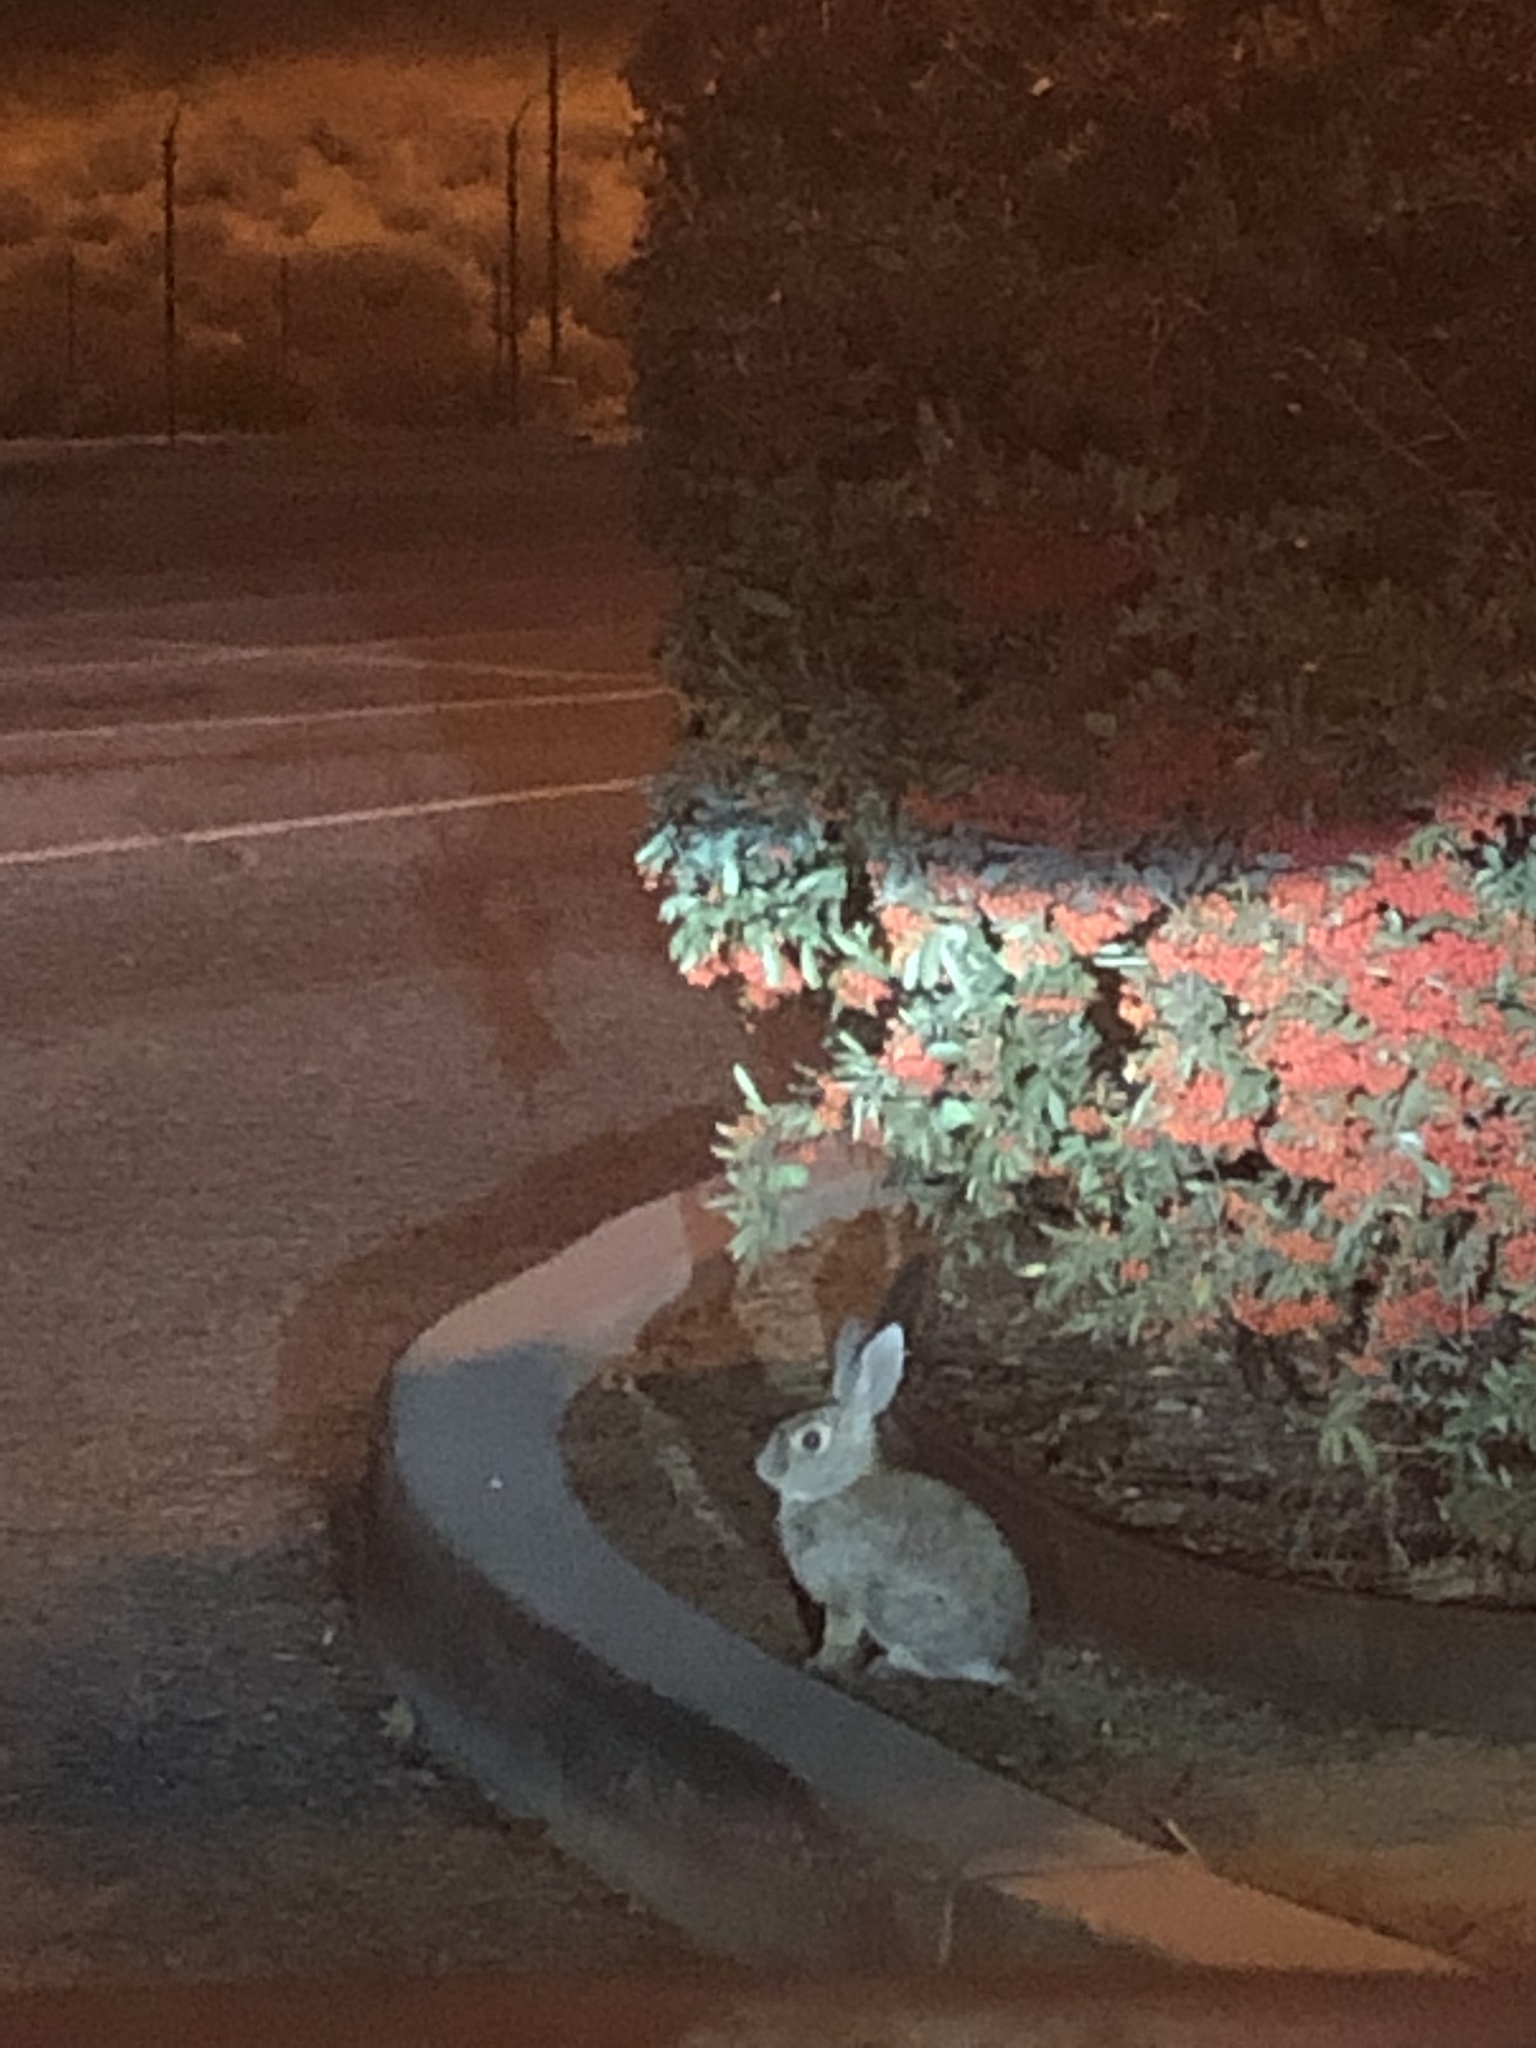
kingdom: Animalia
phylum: Chordata
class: Mammalia
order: Lagomorpha
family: Leporidae
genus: Sylvilagus
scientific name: Sylvilagus audubonii
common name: Desert cottontail
